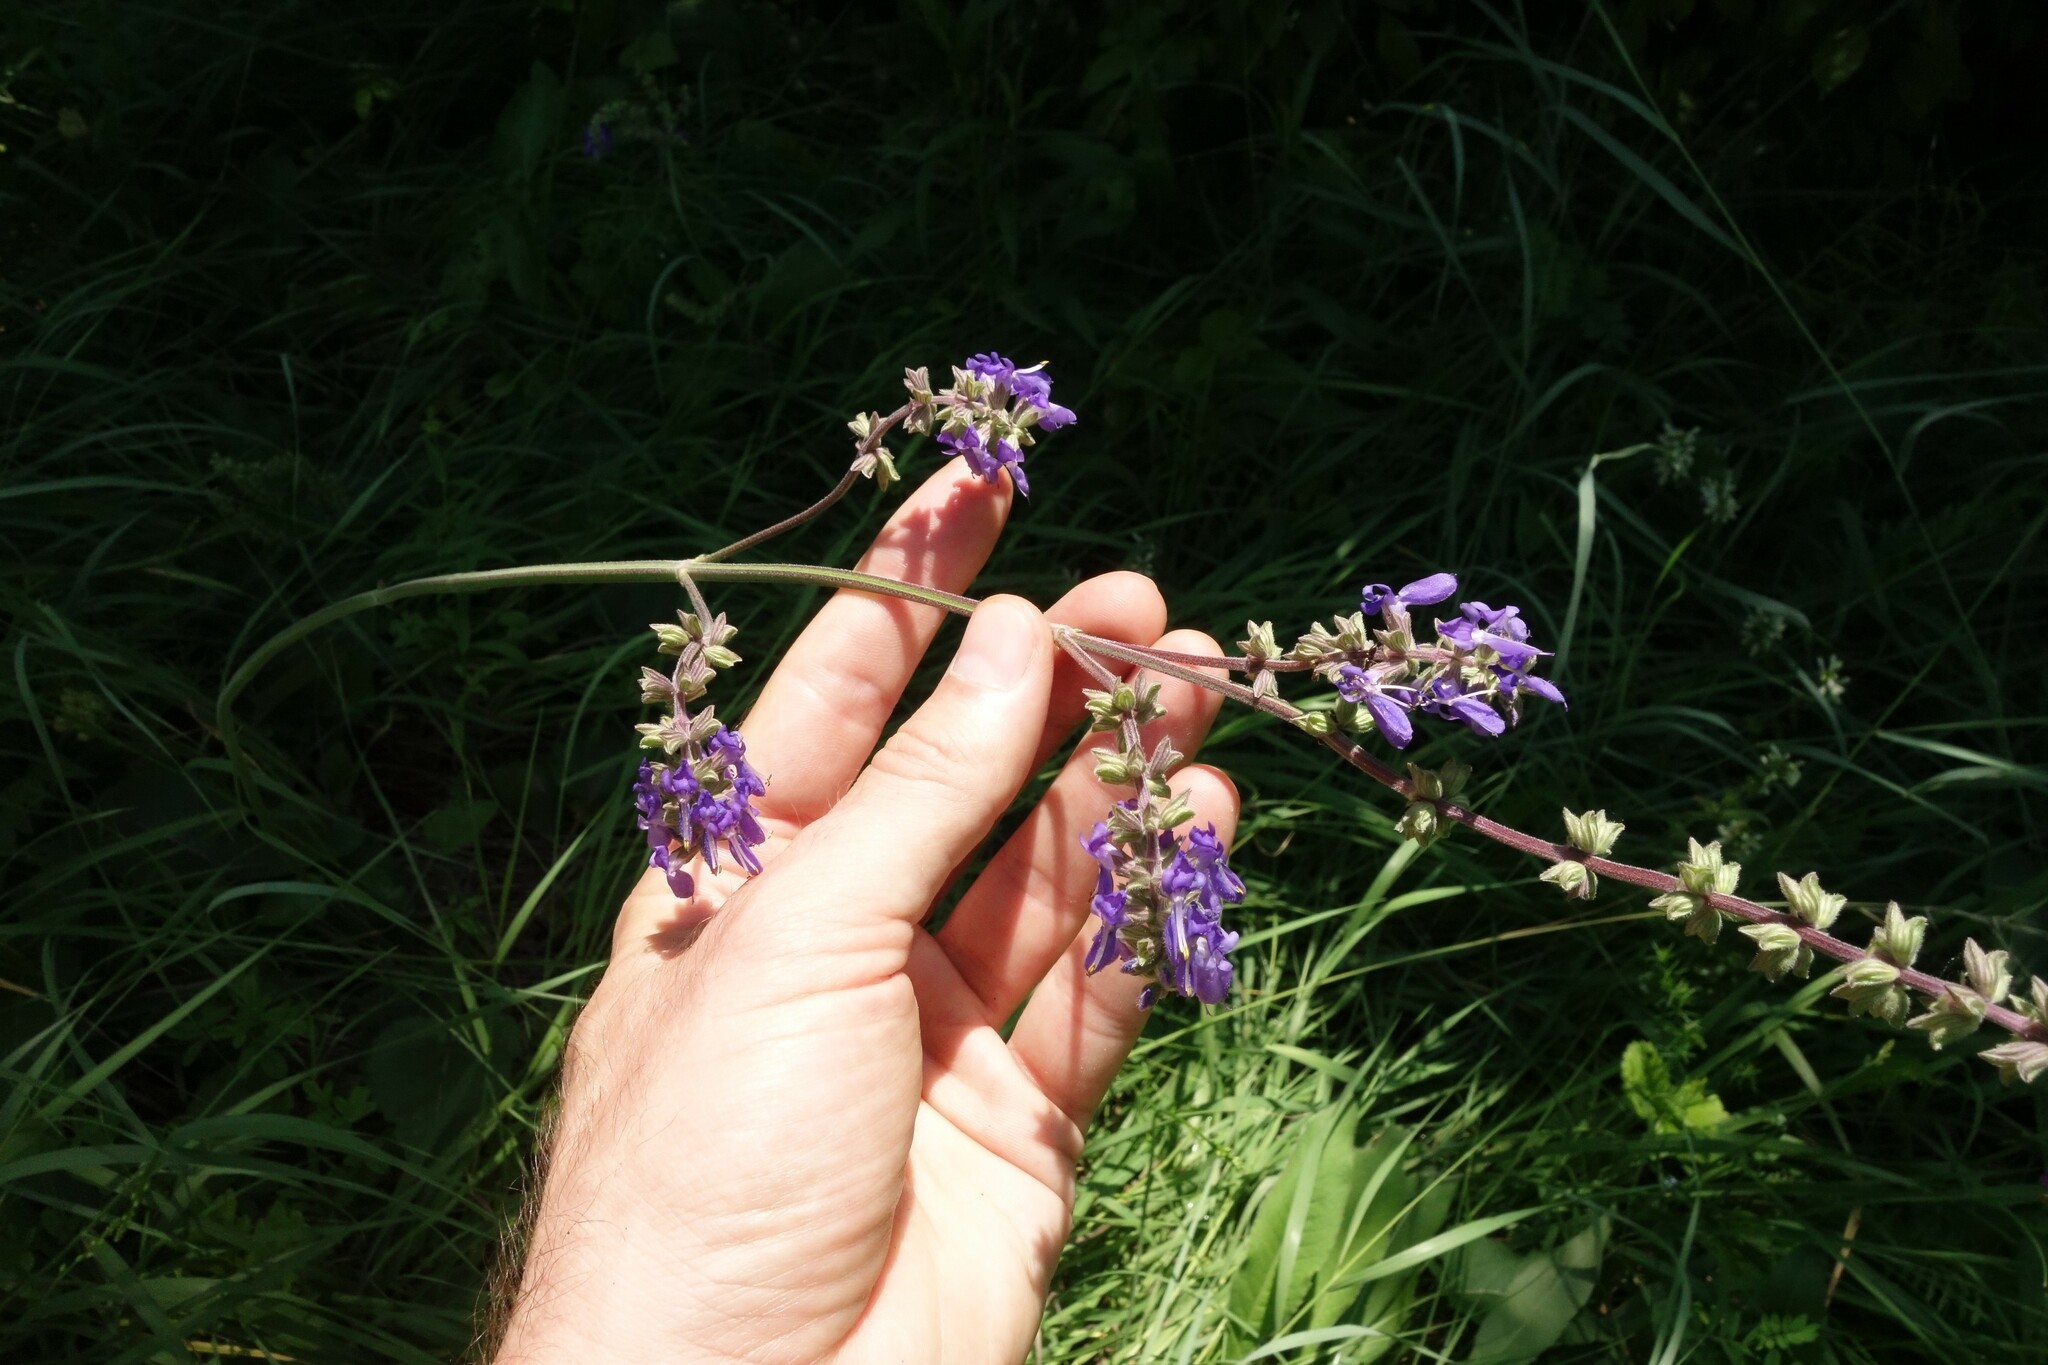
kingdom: Plantae
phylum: Tracheophyta
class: Magnoliopsida
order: Lamiales
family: Lamiaceae
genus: Salvia
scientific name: Salvia nutans
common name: Nodding sage
